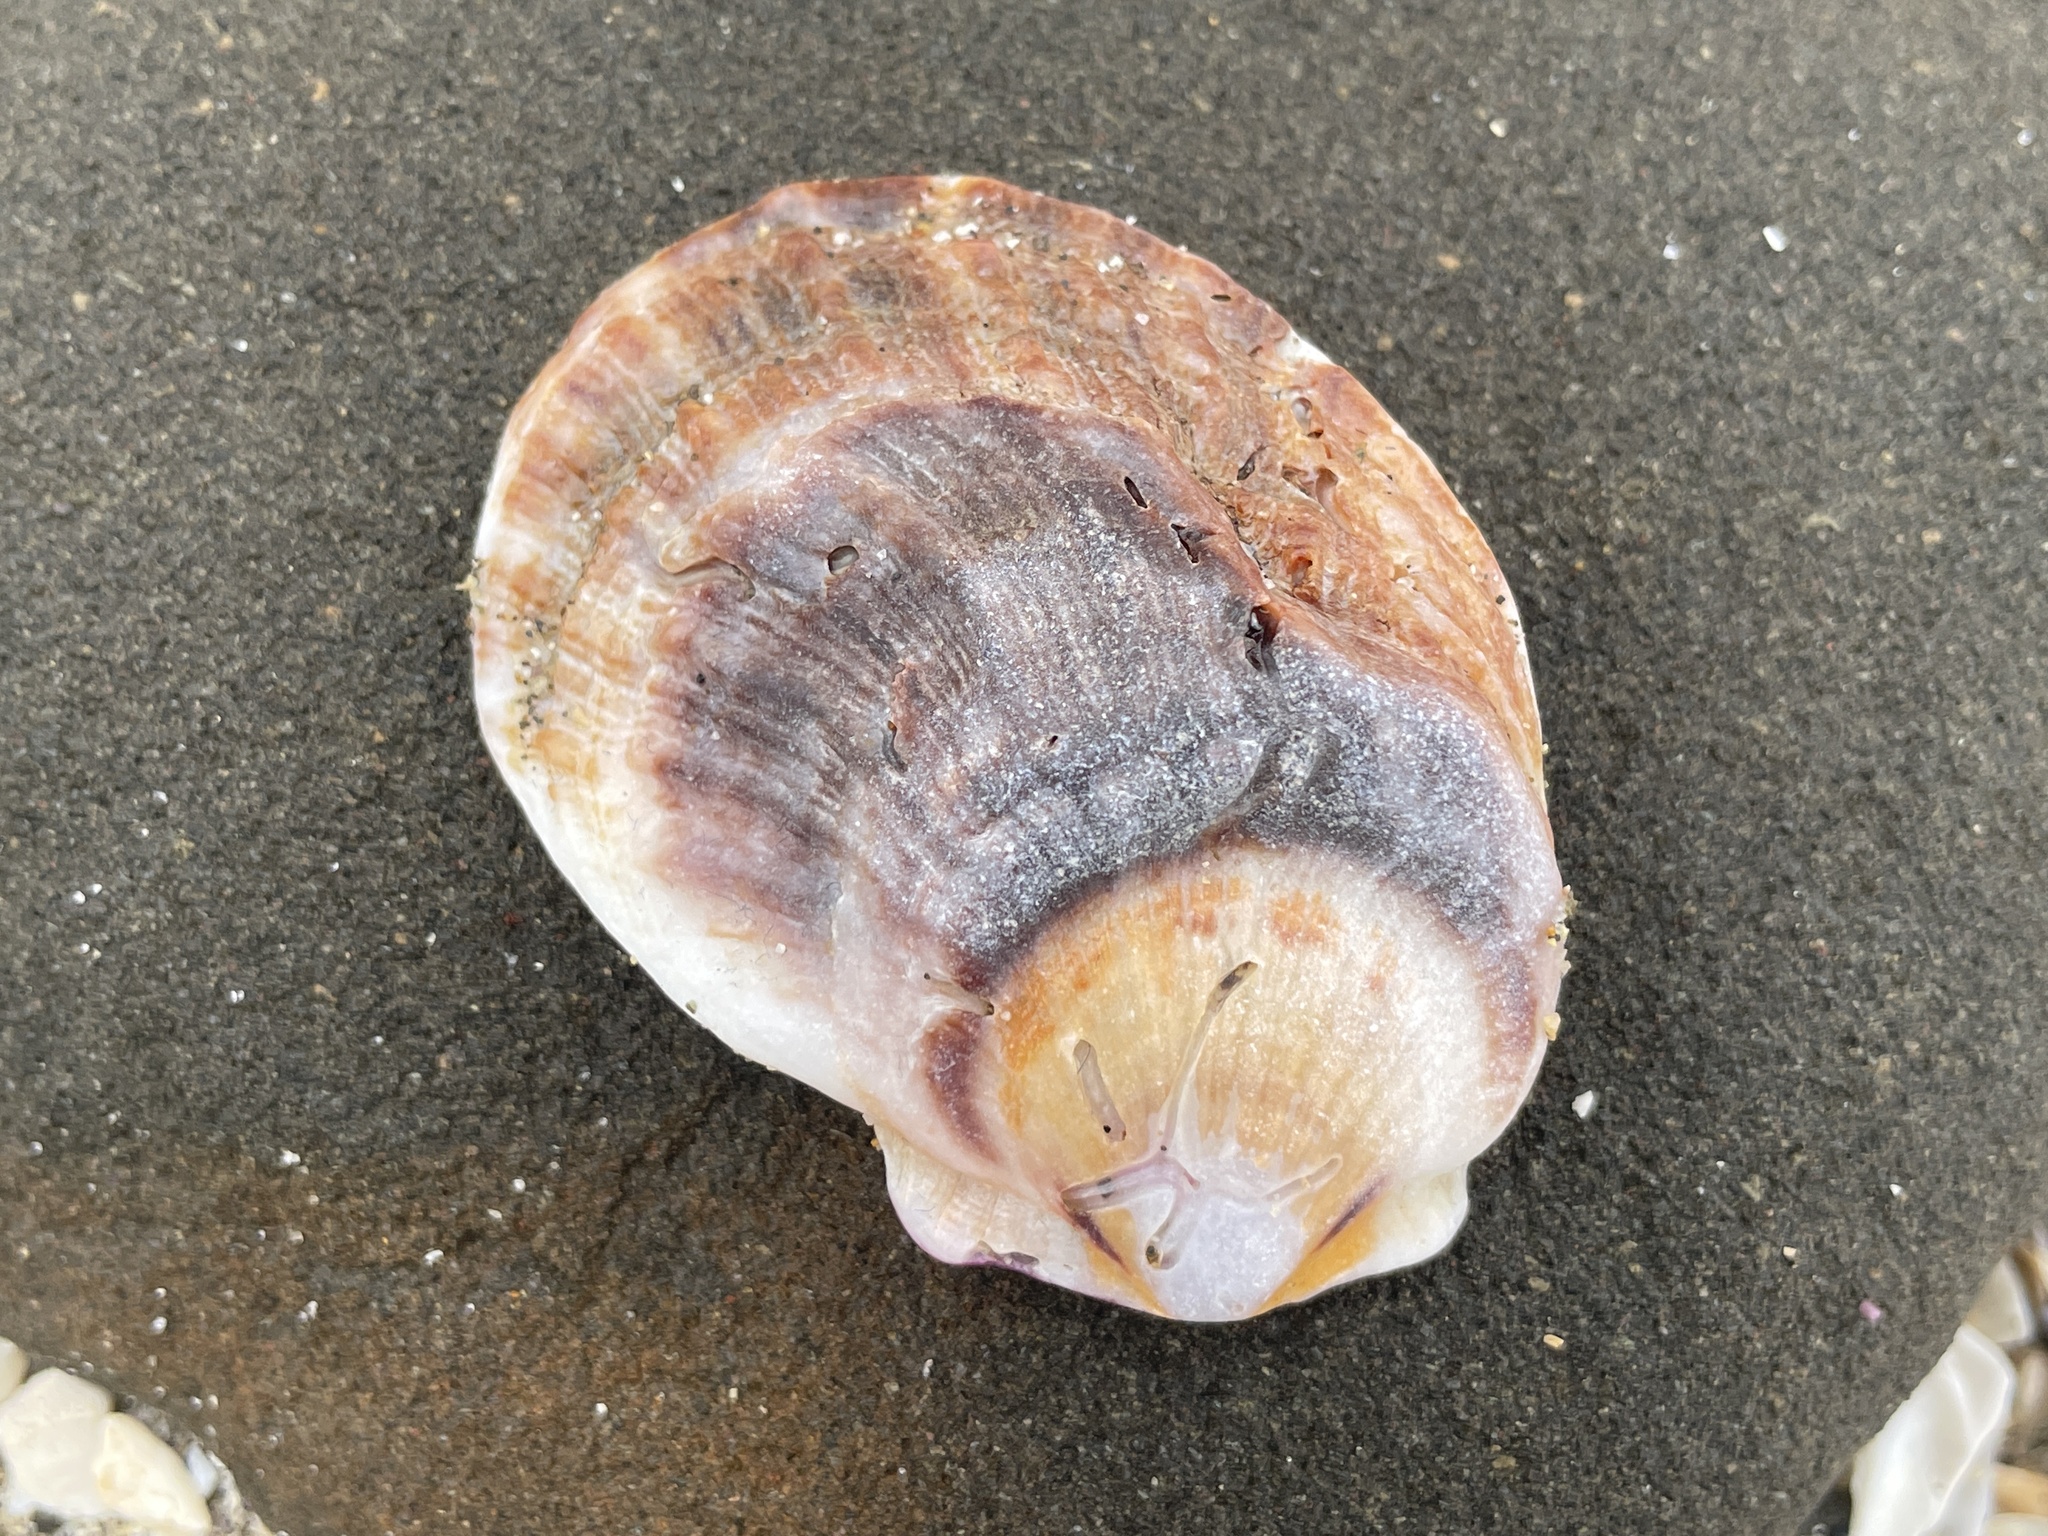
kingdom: Animalia
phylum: Mollusca
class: Bivalvia
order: Pectinida
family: Pectinidae
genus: Crassadoma
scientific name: Crassadoma gigantea
